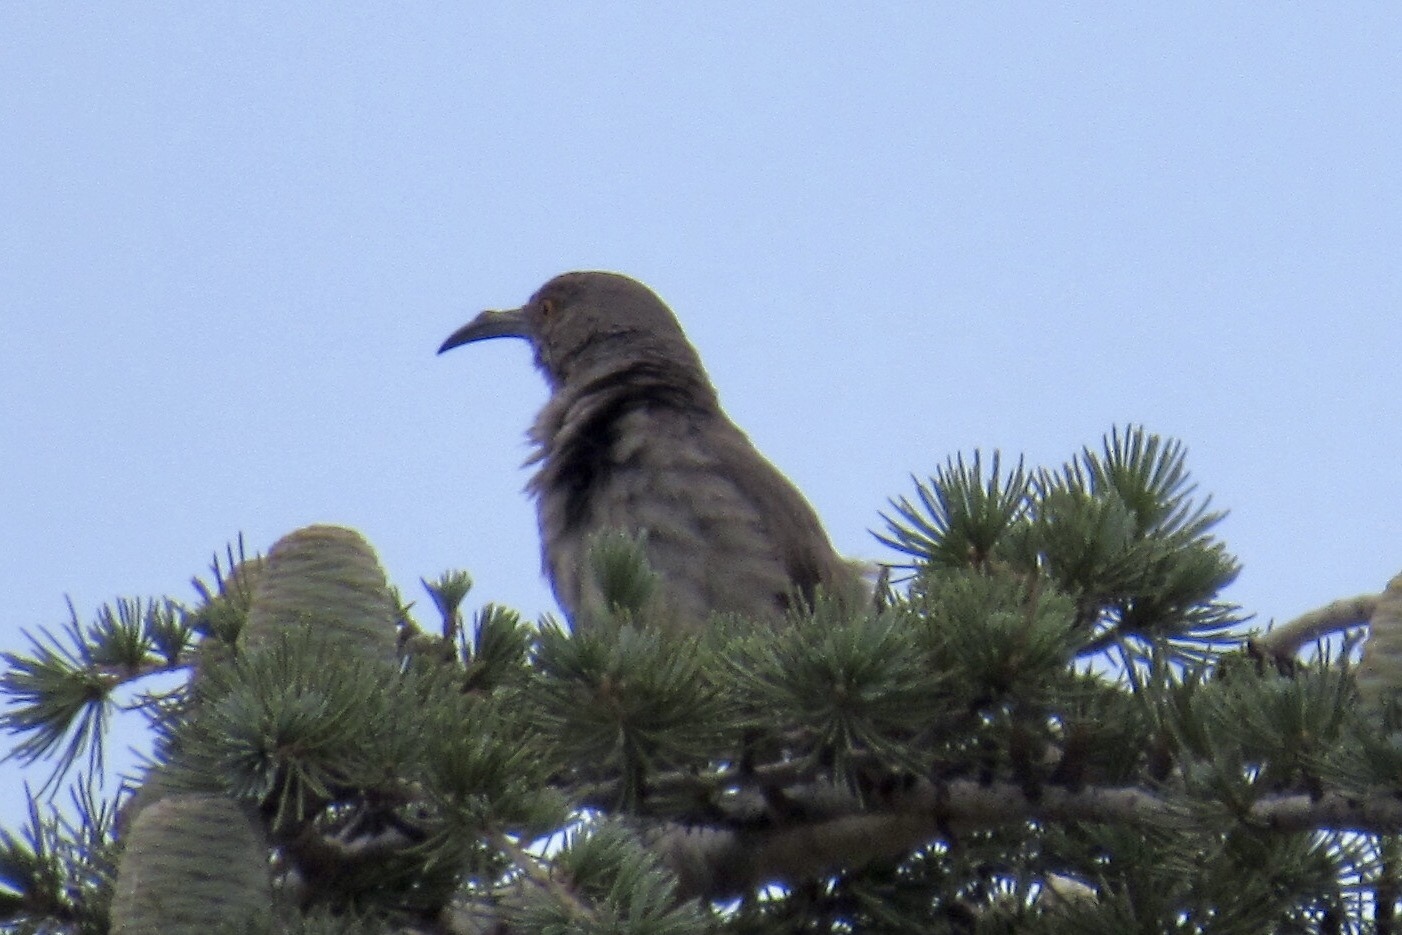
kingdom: Animalia
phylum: Chordata
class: Aves
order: Passeriformes
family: Mimidae
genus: Toxostoma
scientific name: Toxostoma curvirostre
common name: Curve-billed thrasher
